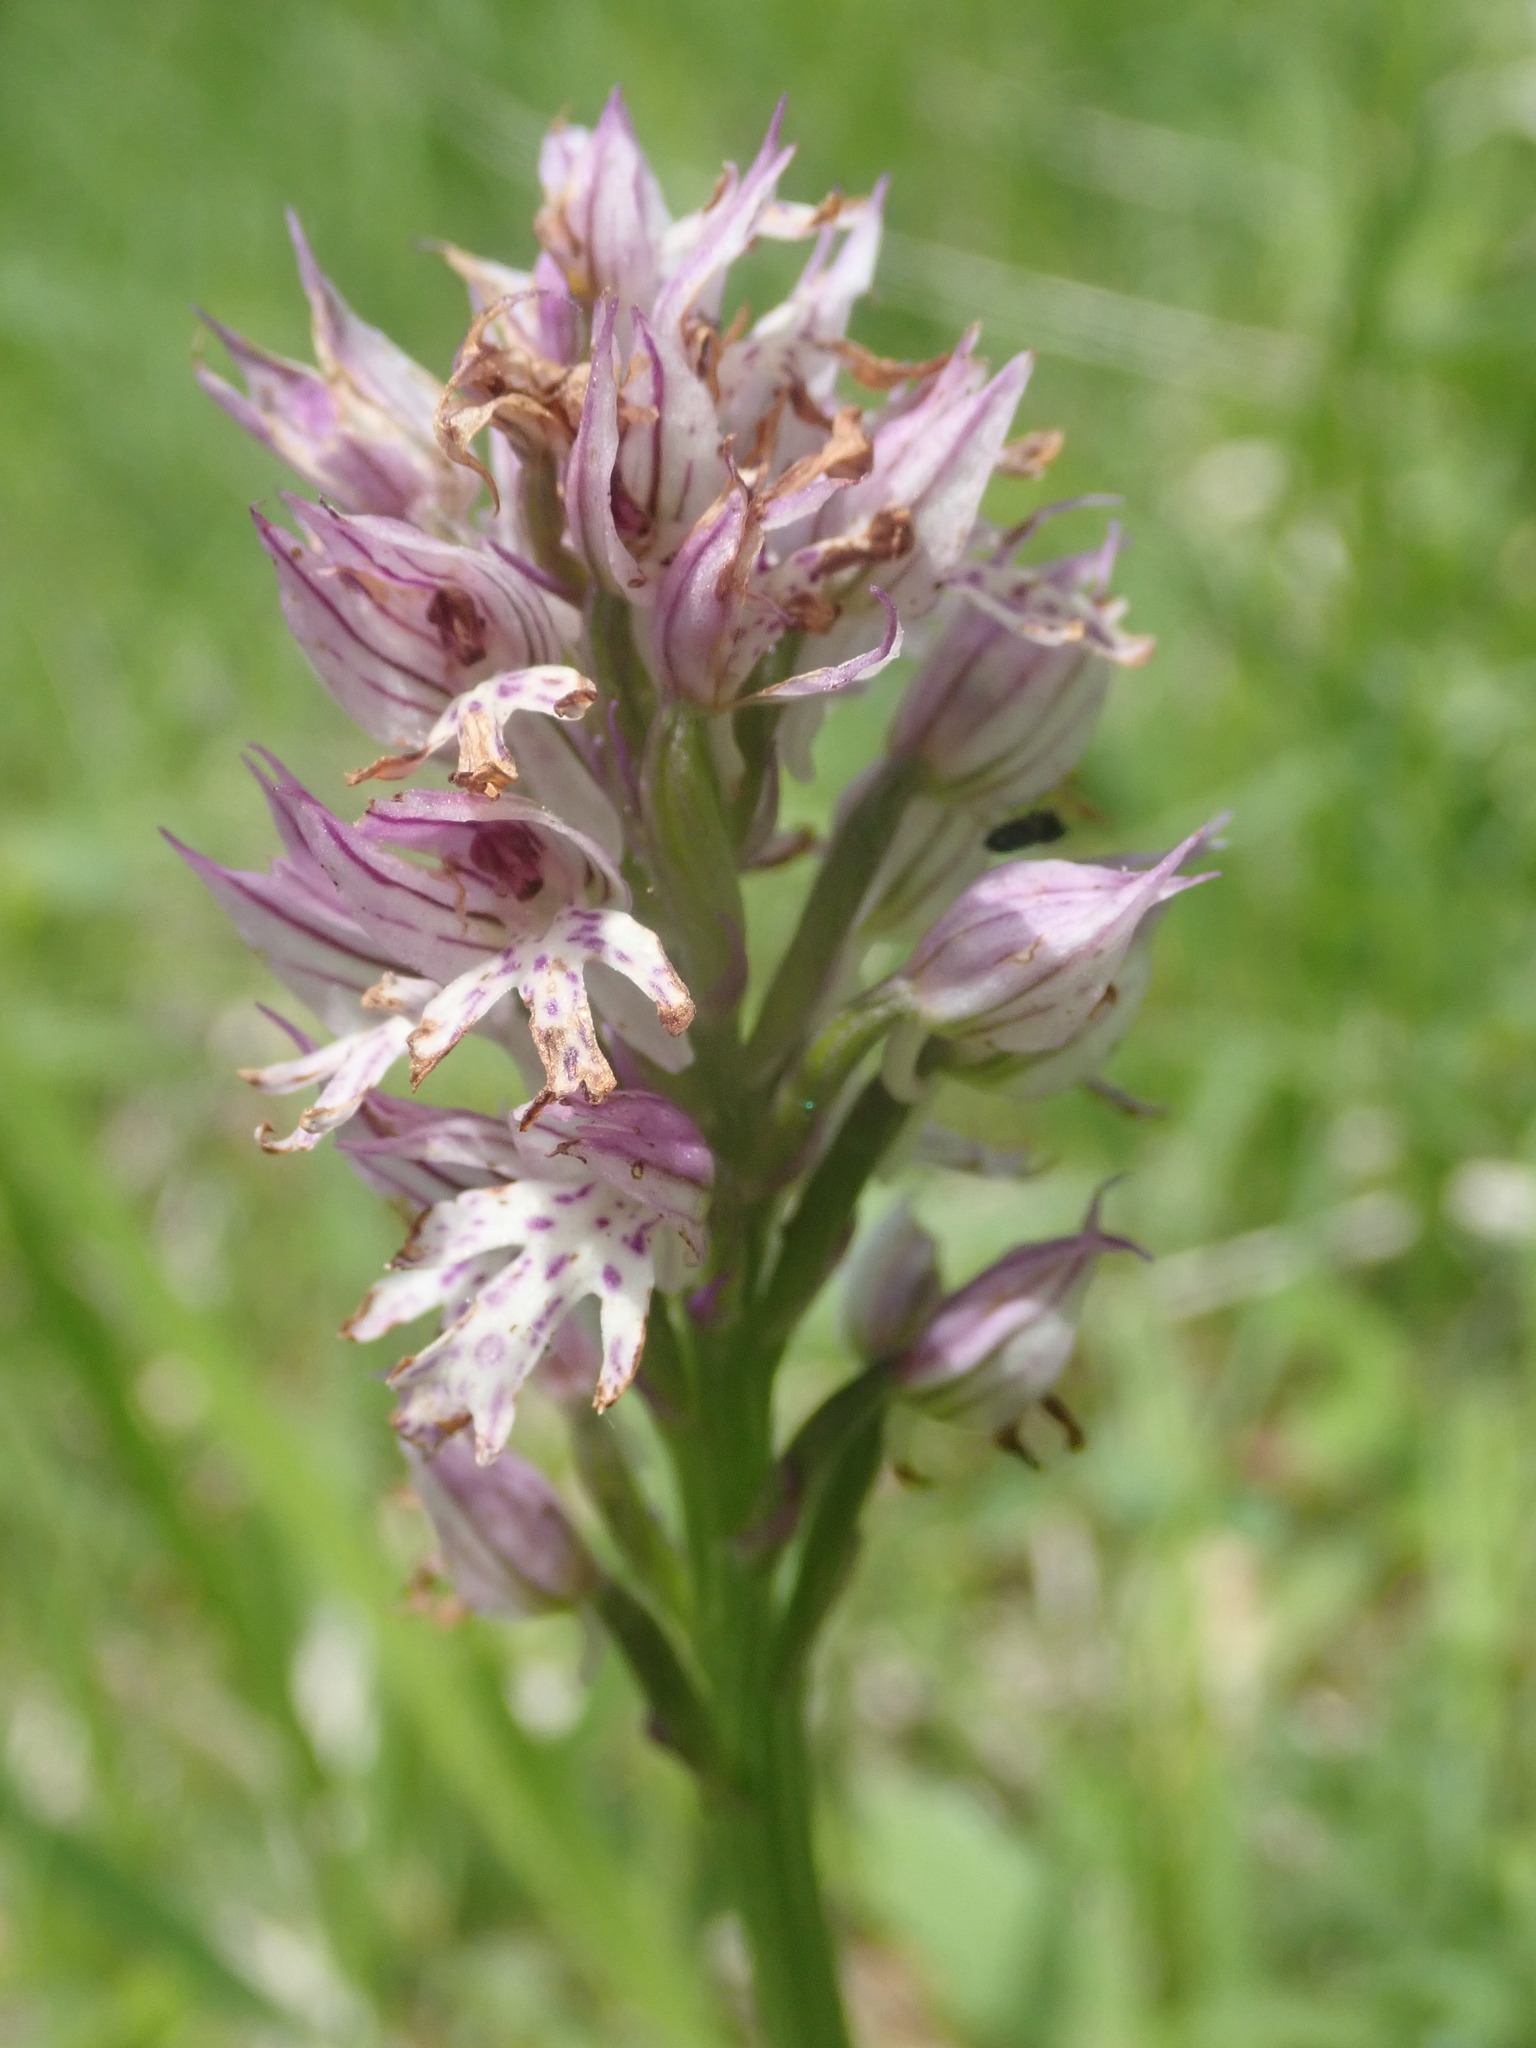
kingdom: Plantae
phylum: Tracheophyta
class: Liliopsida
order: Asparagales
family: Orchidaceae
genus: Neotinea
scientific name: Neotinea tridentata
